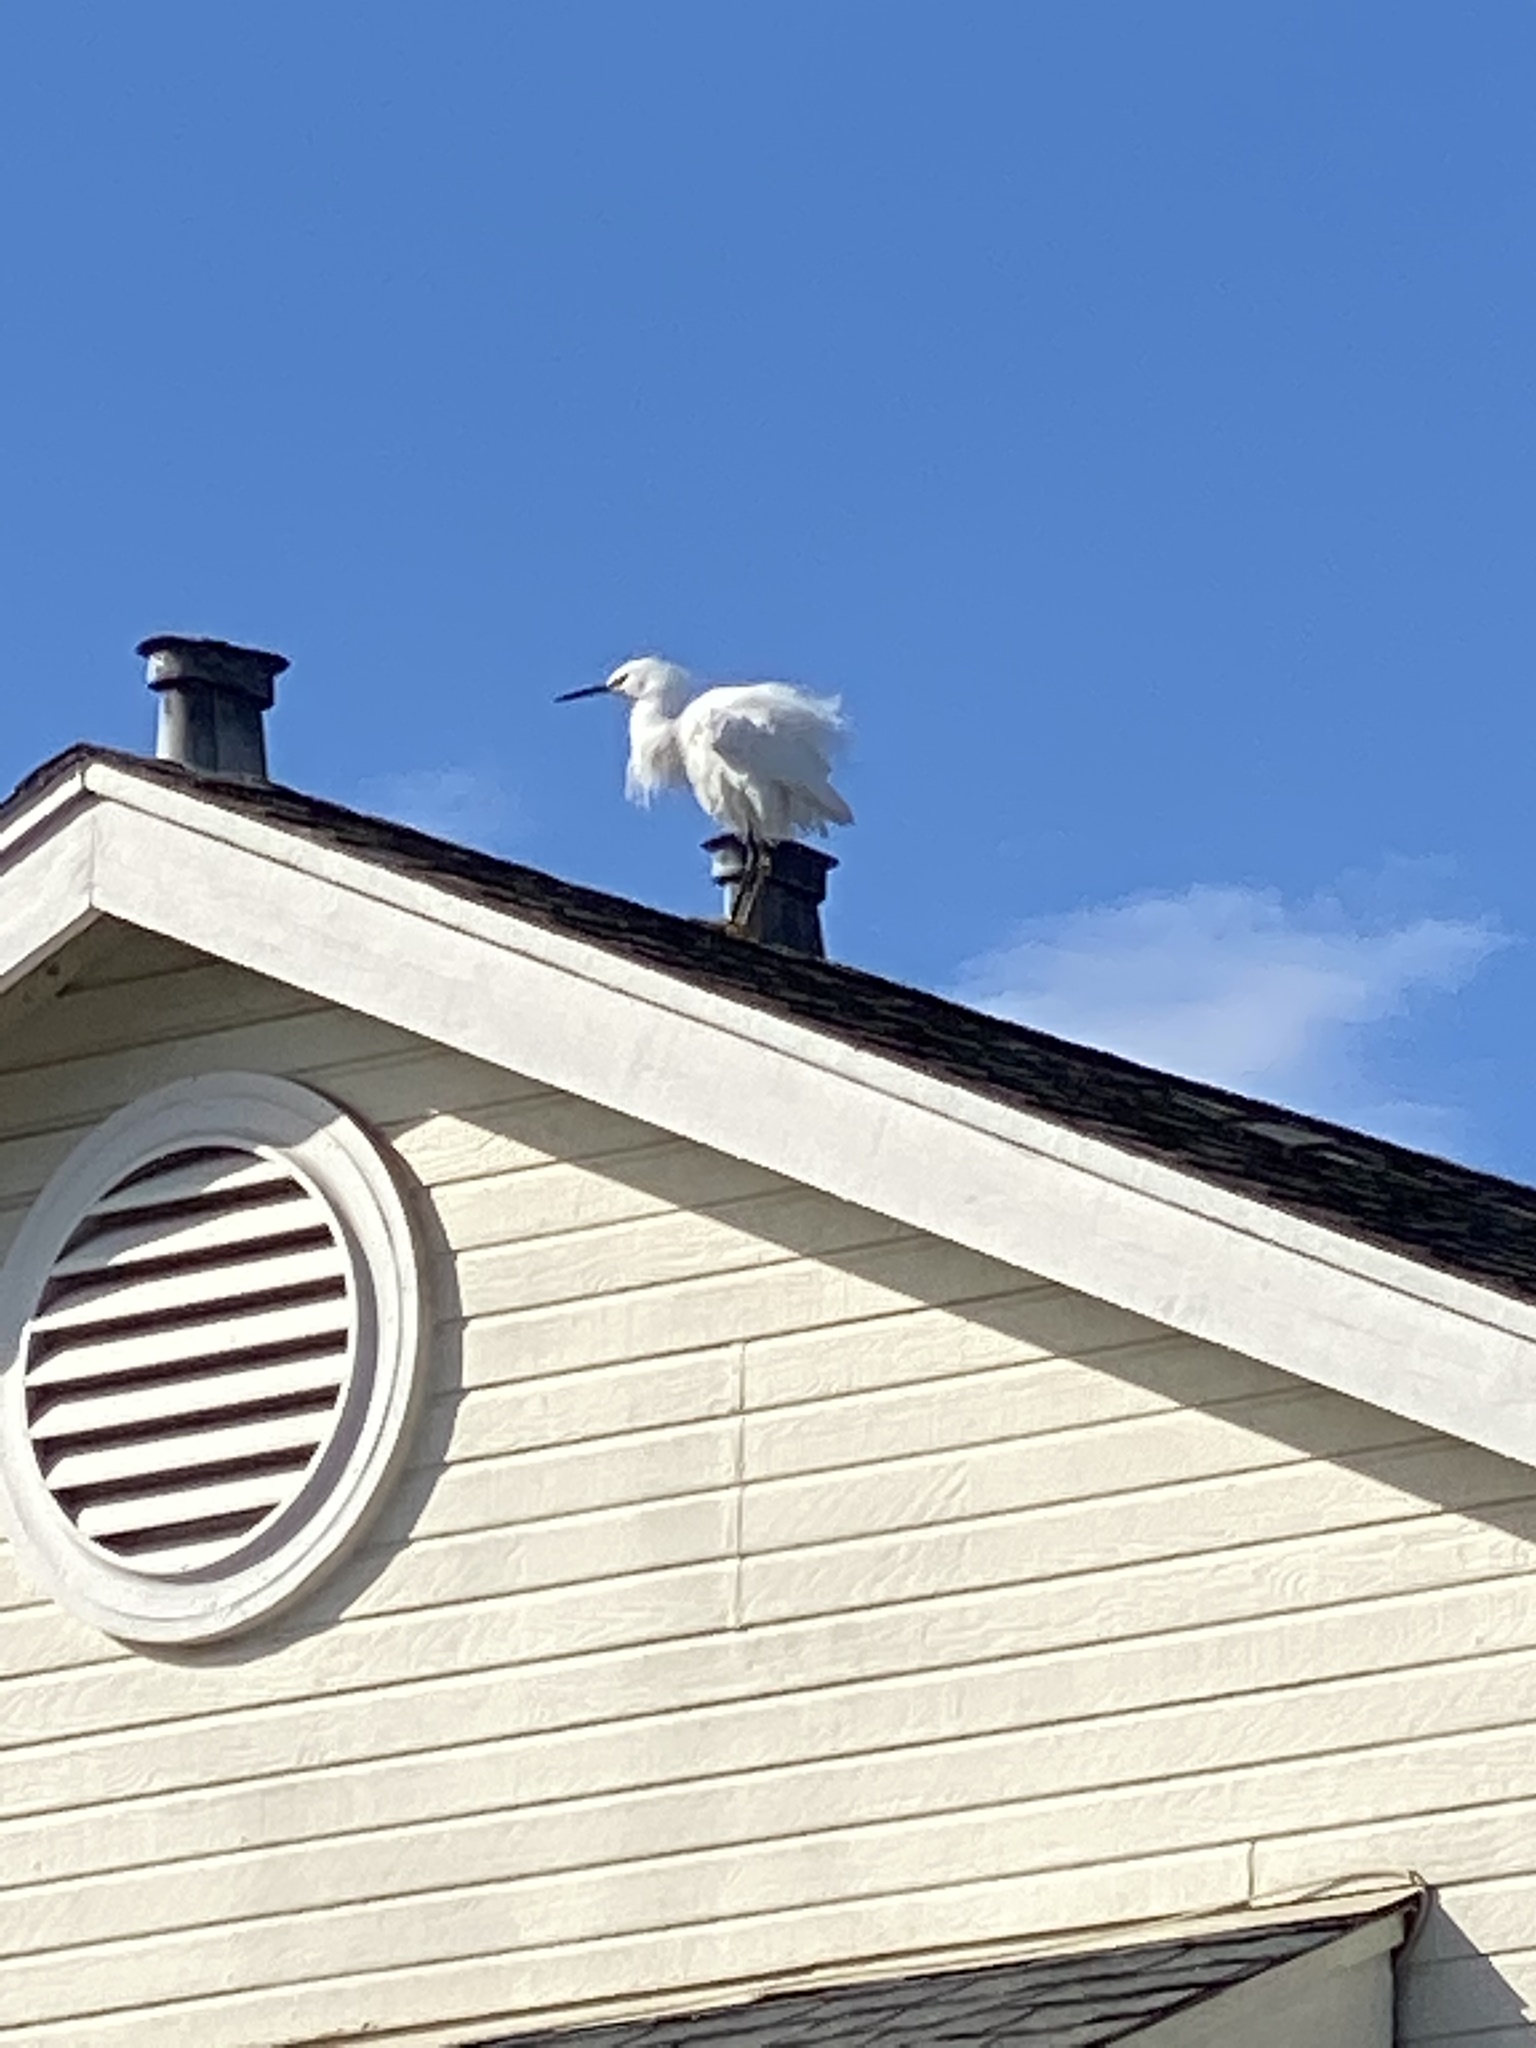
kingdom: Animalia
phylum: Chordata
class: Aves
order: Pelecaniformes
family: Ardeidae
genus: Egretta
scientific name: Egretta thula
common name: Snowy egret
